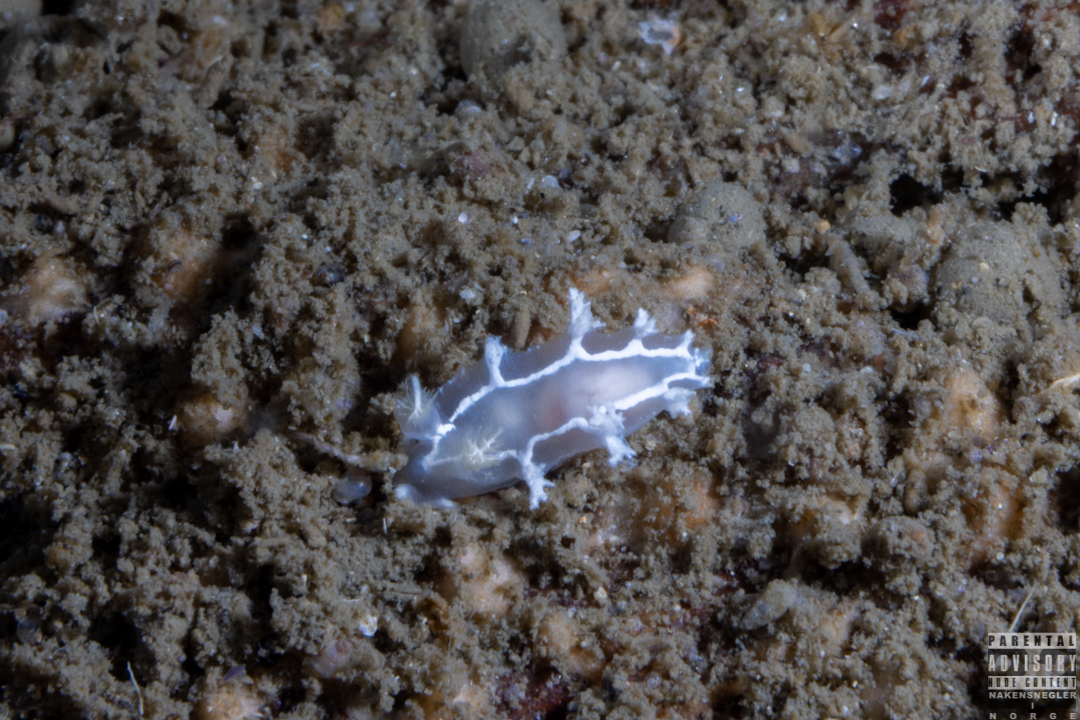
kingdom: Animalia
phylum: Mollusca
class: Gastropoda
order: Nudibranchia
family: Tritoniidae
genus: Duvaucelia
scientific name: Duvaucelia lineata
